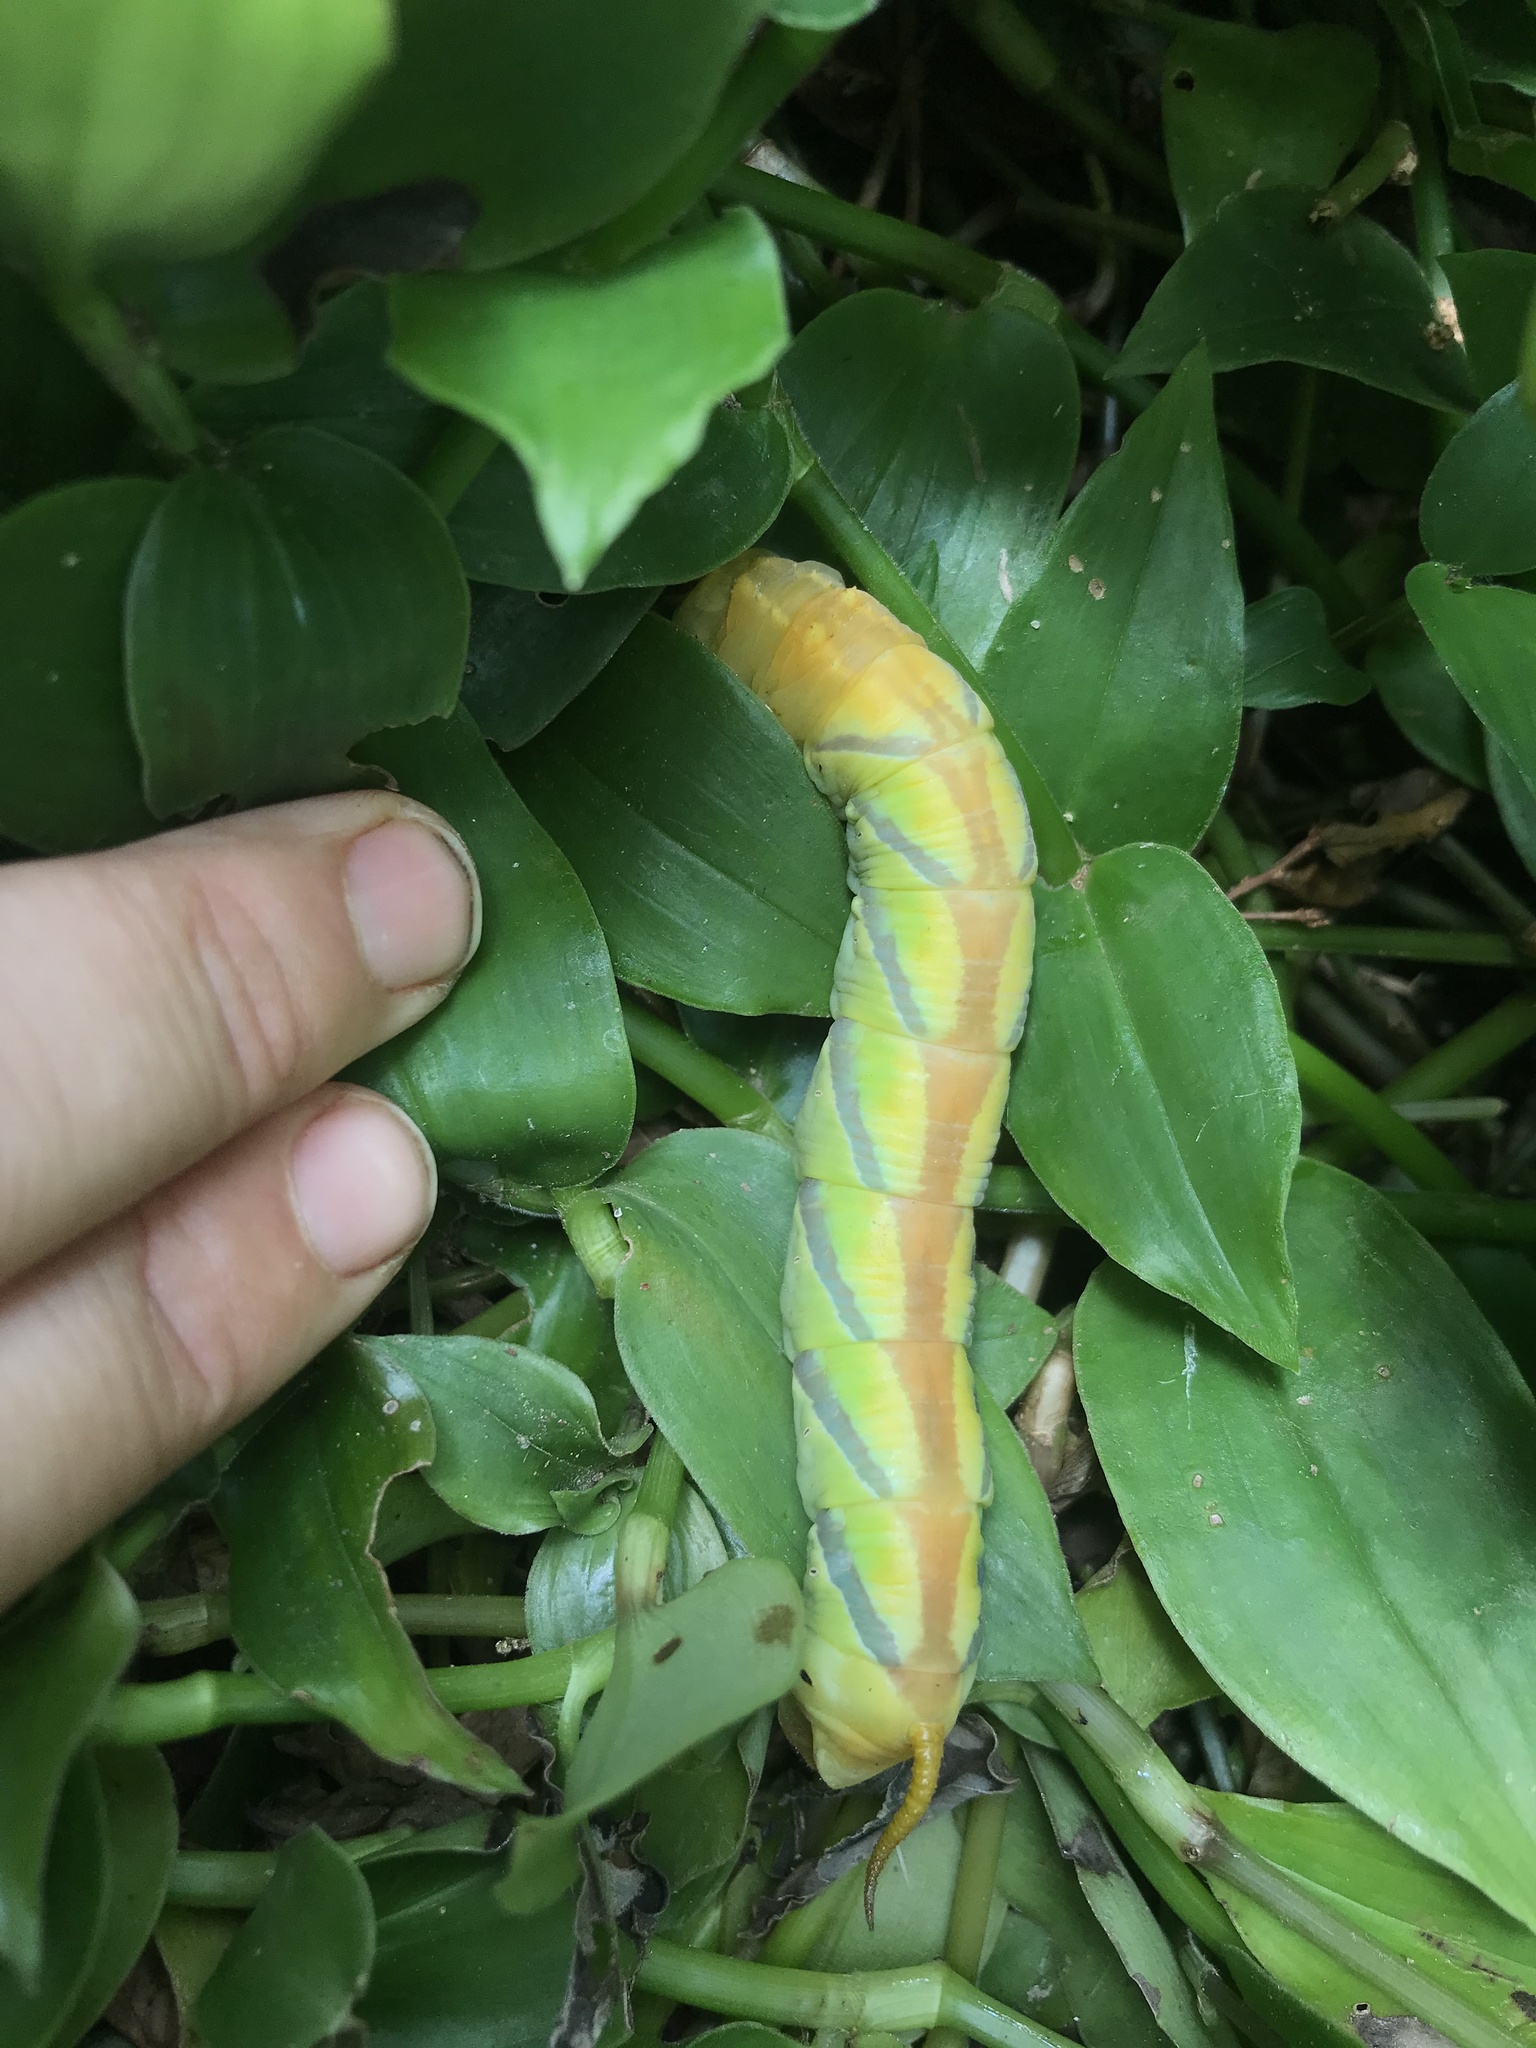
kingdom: Animalia
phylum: Arthropoda
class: Insecta
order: Lepidoptera
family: Sphingidae
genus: Coelonia
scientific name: Coelonia fulvinotata
